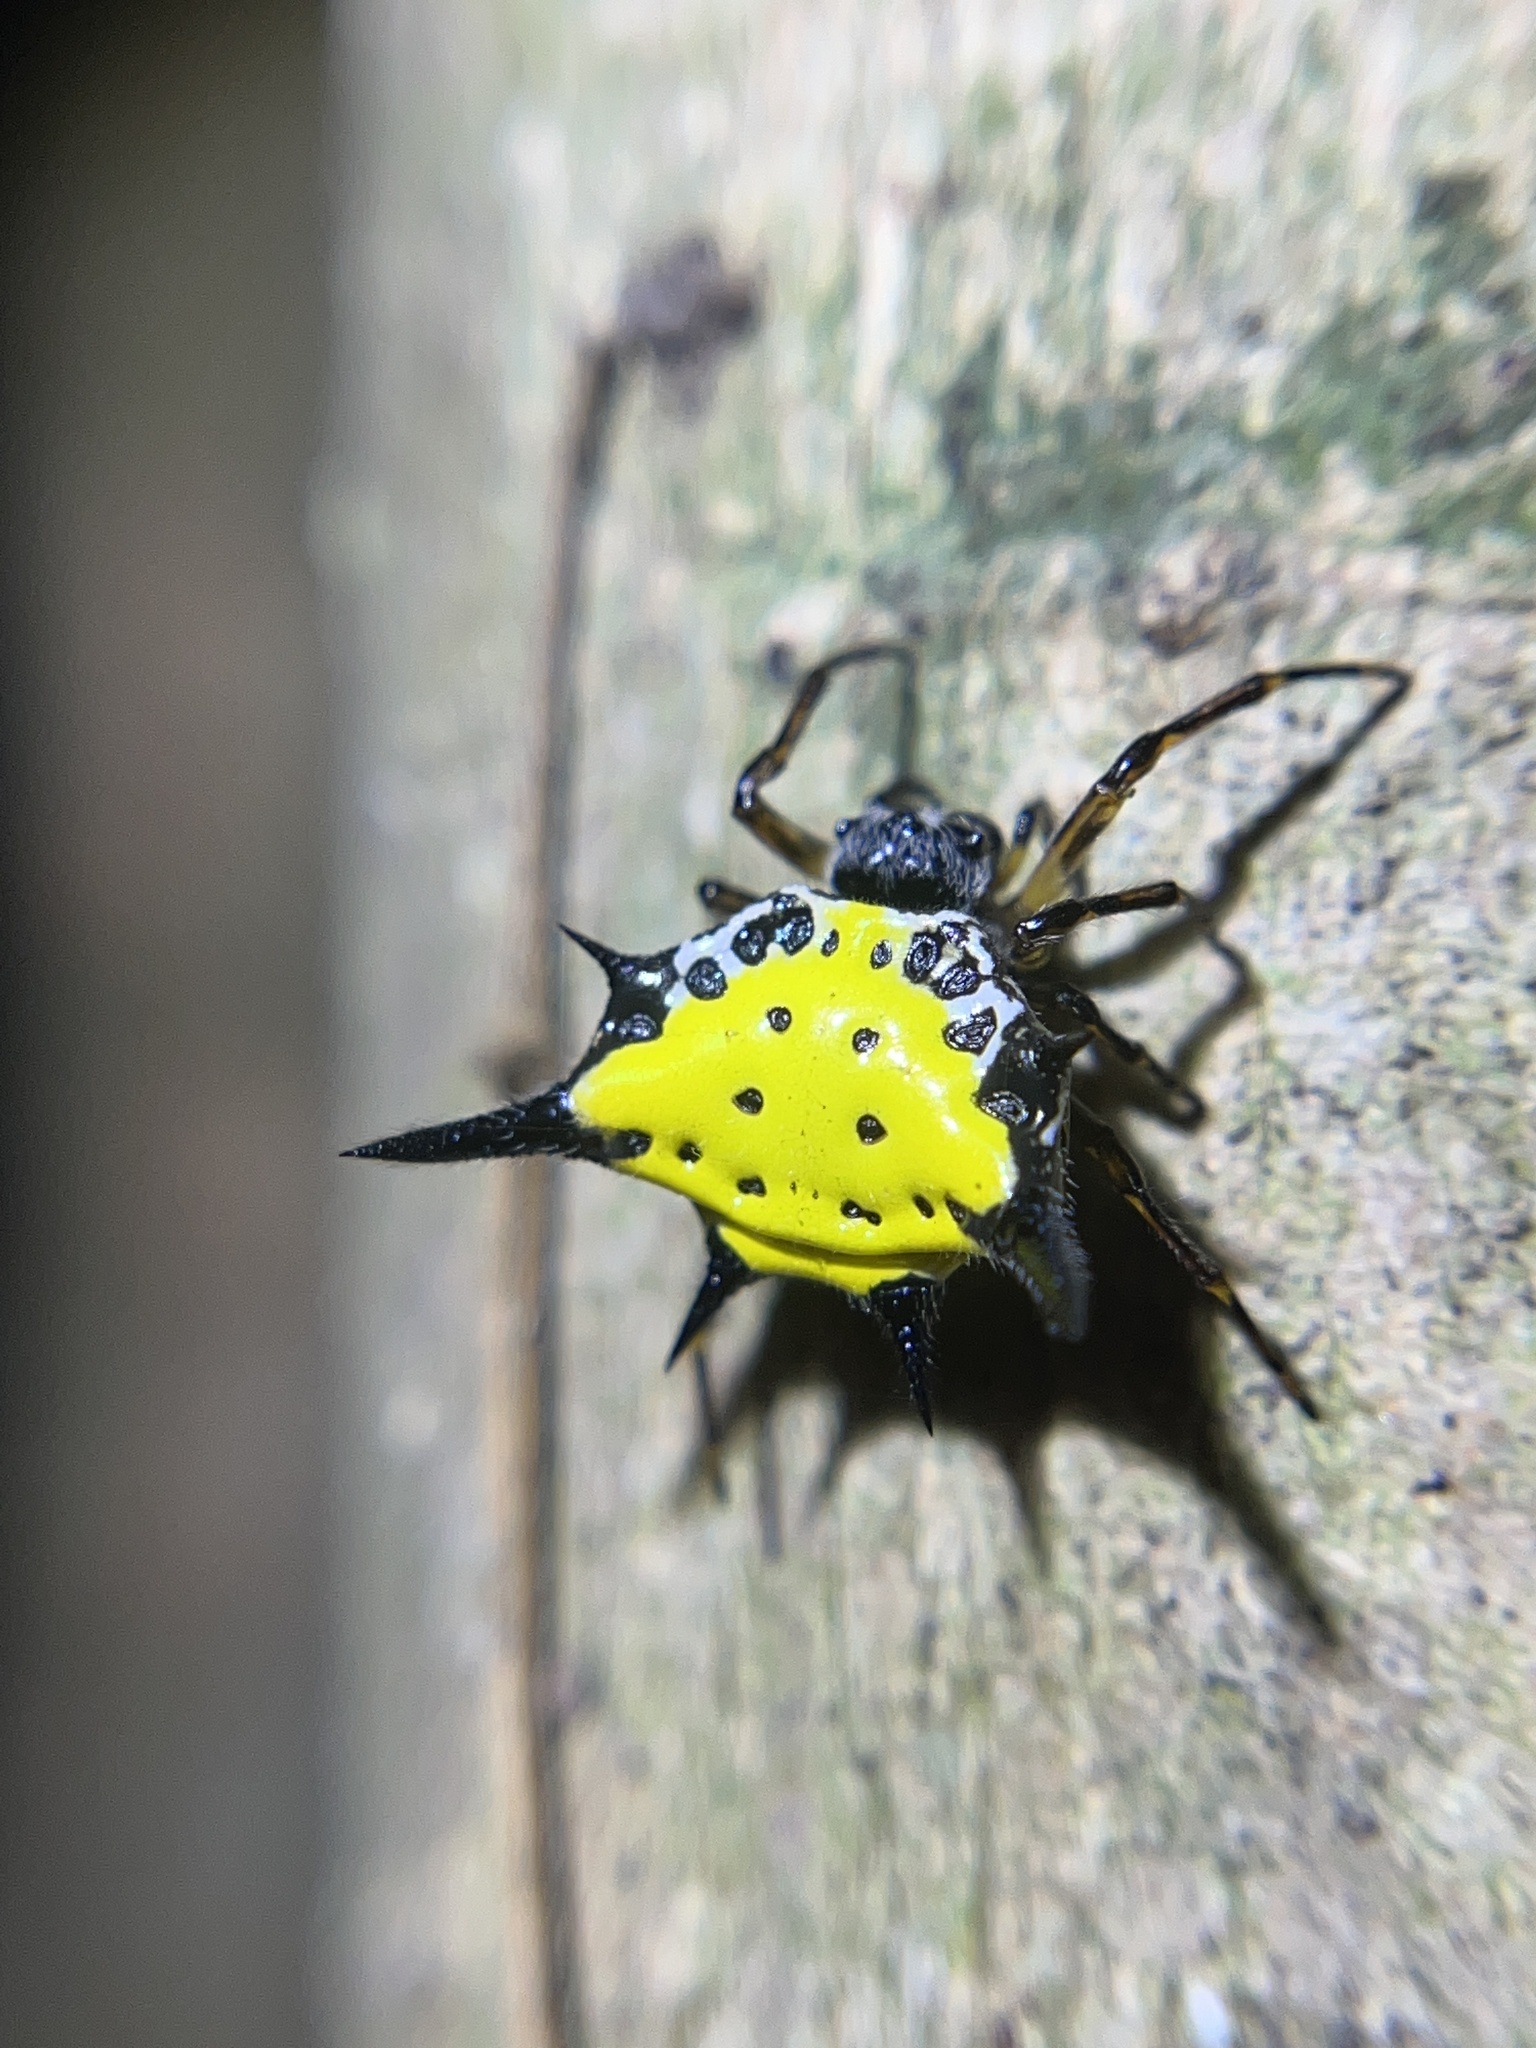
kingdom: Animalia
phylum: Arthropoda
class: Arachnida
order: Araneae
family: Araneidae
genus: Macracantha
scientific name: Macracantha hasselti
